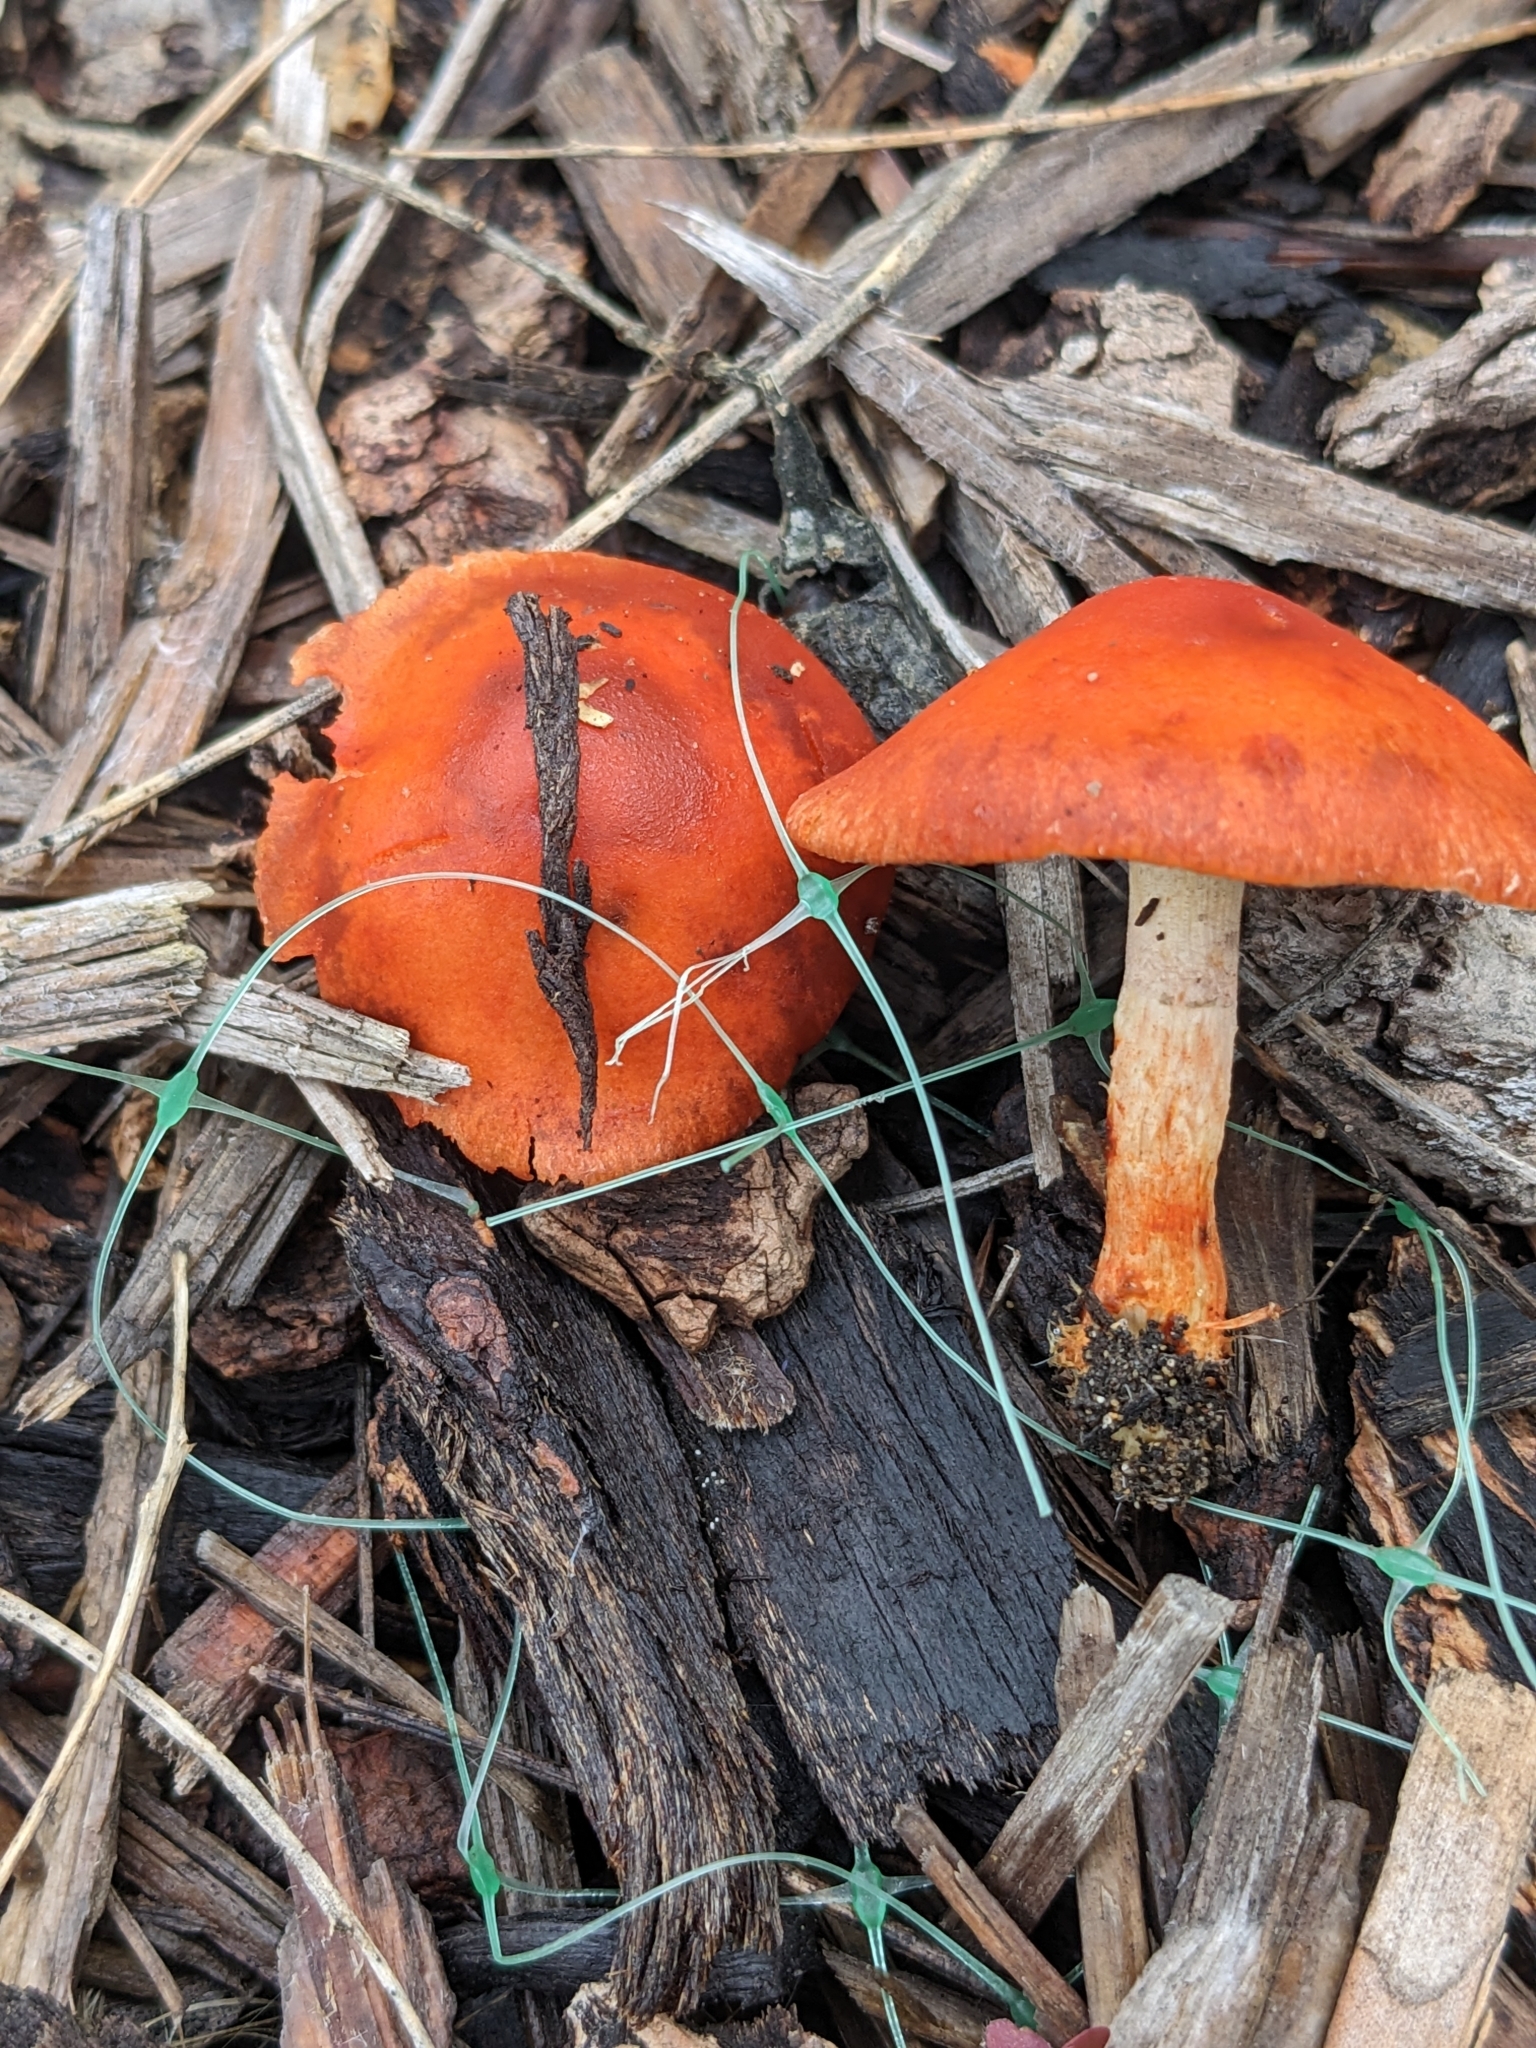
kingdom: Fungi
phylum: Basidiomycota
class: Agaricomycetes
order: Agaricales
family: Strophariaceae
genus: Leratiomyces
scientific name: Leratiomyces ceres
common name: Redlead roundhead
